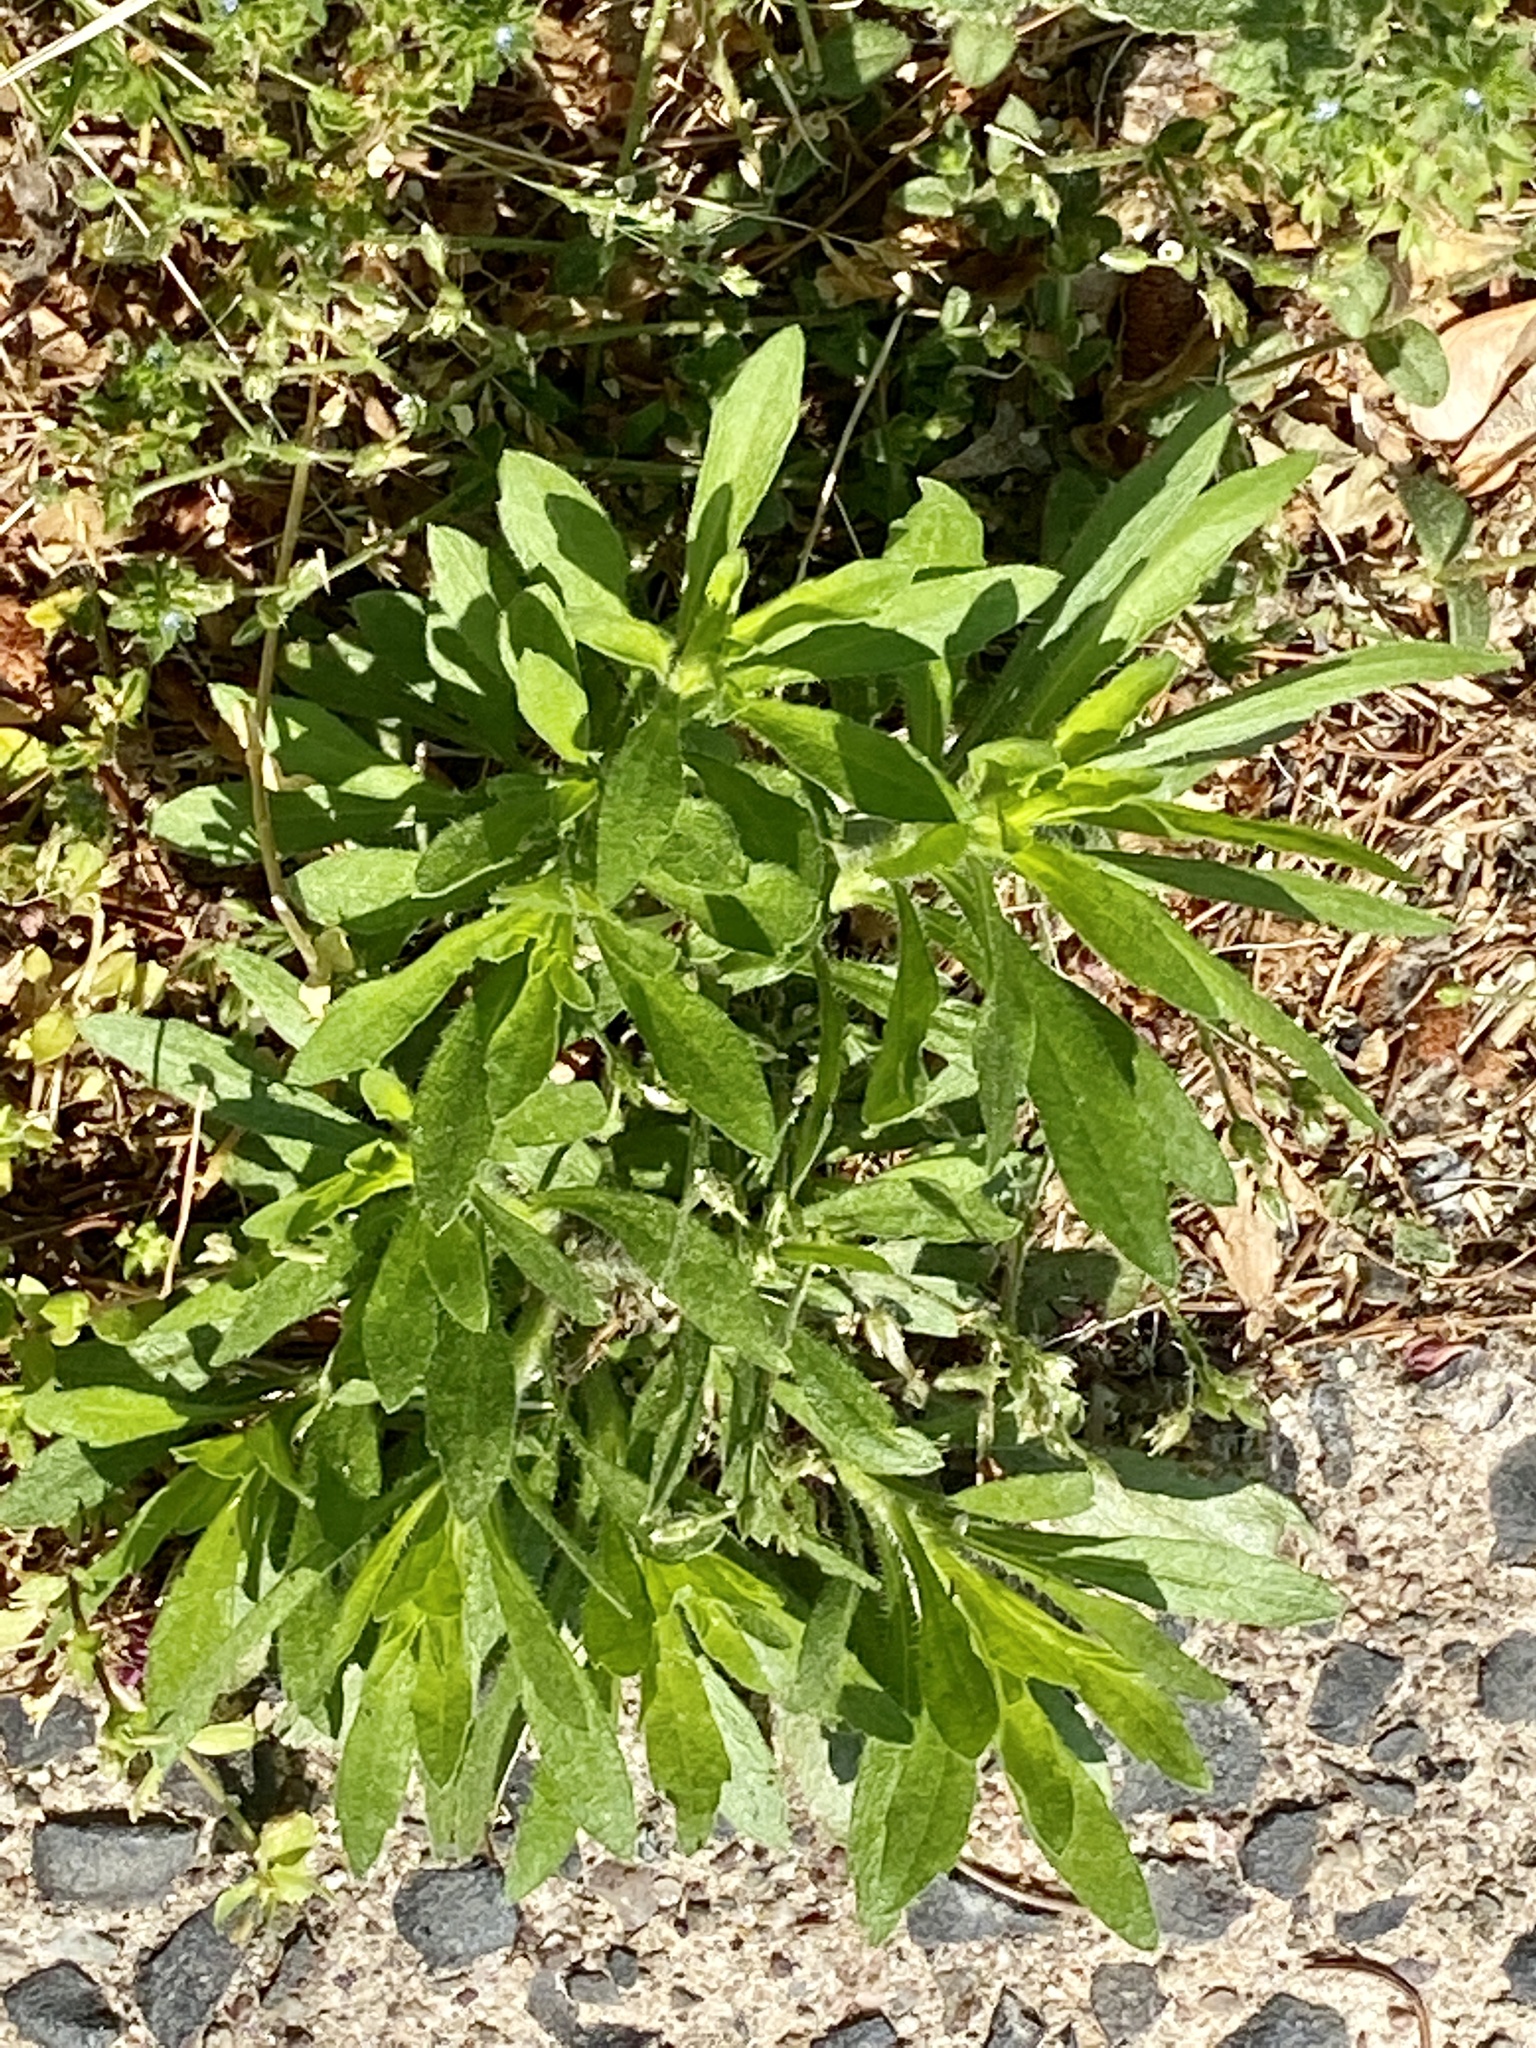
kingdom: Plantae
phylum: Tracheophyta
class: Magnoliopsida
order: Asterales
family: Asteraceae
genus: Erigeron
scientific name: Erigeron canadensis
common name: Canadian fleabane
